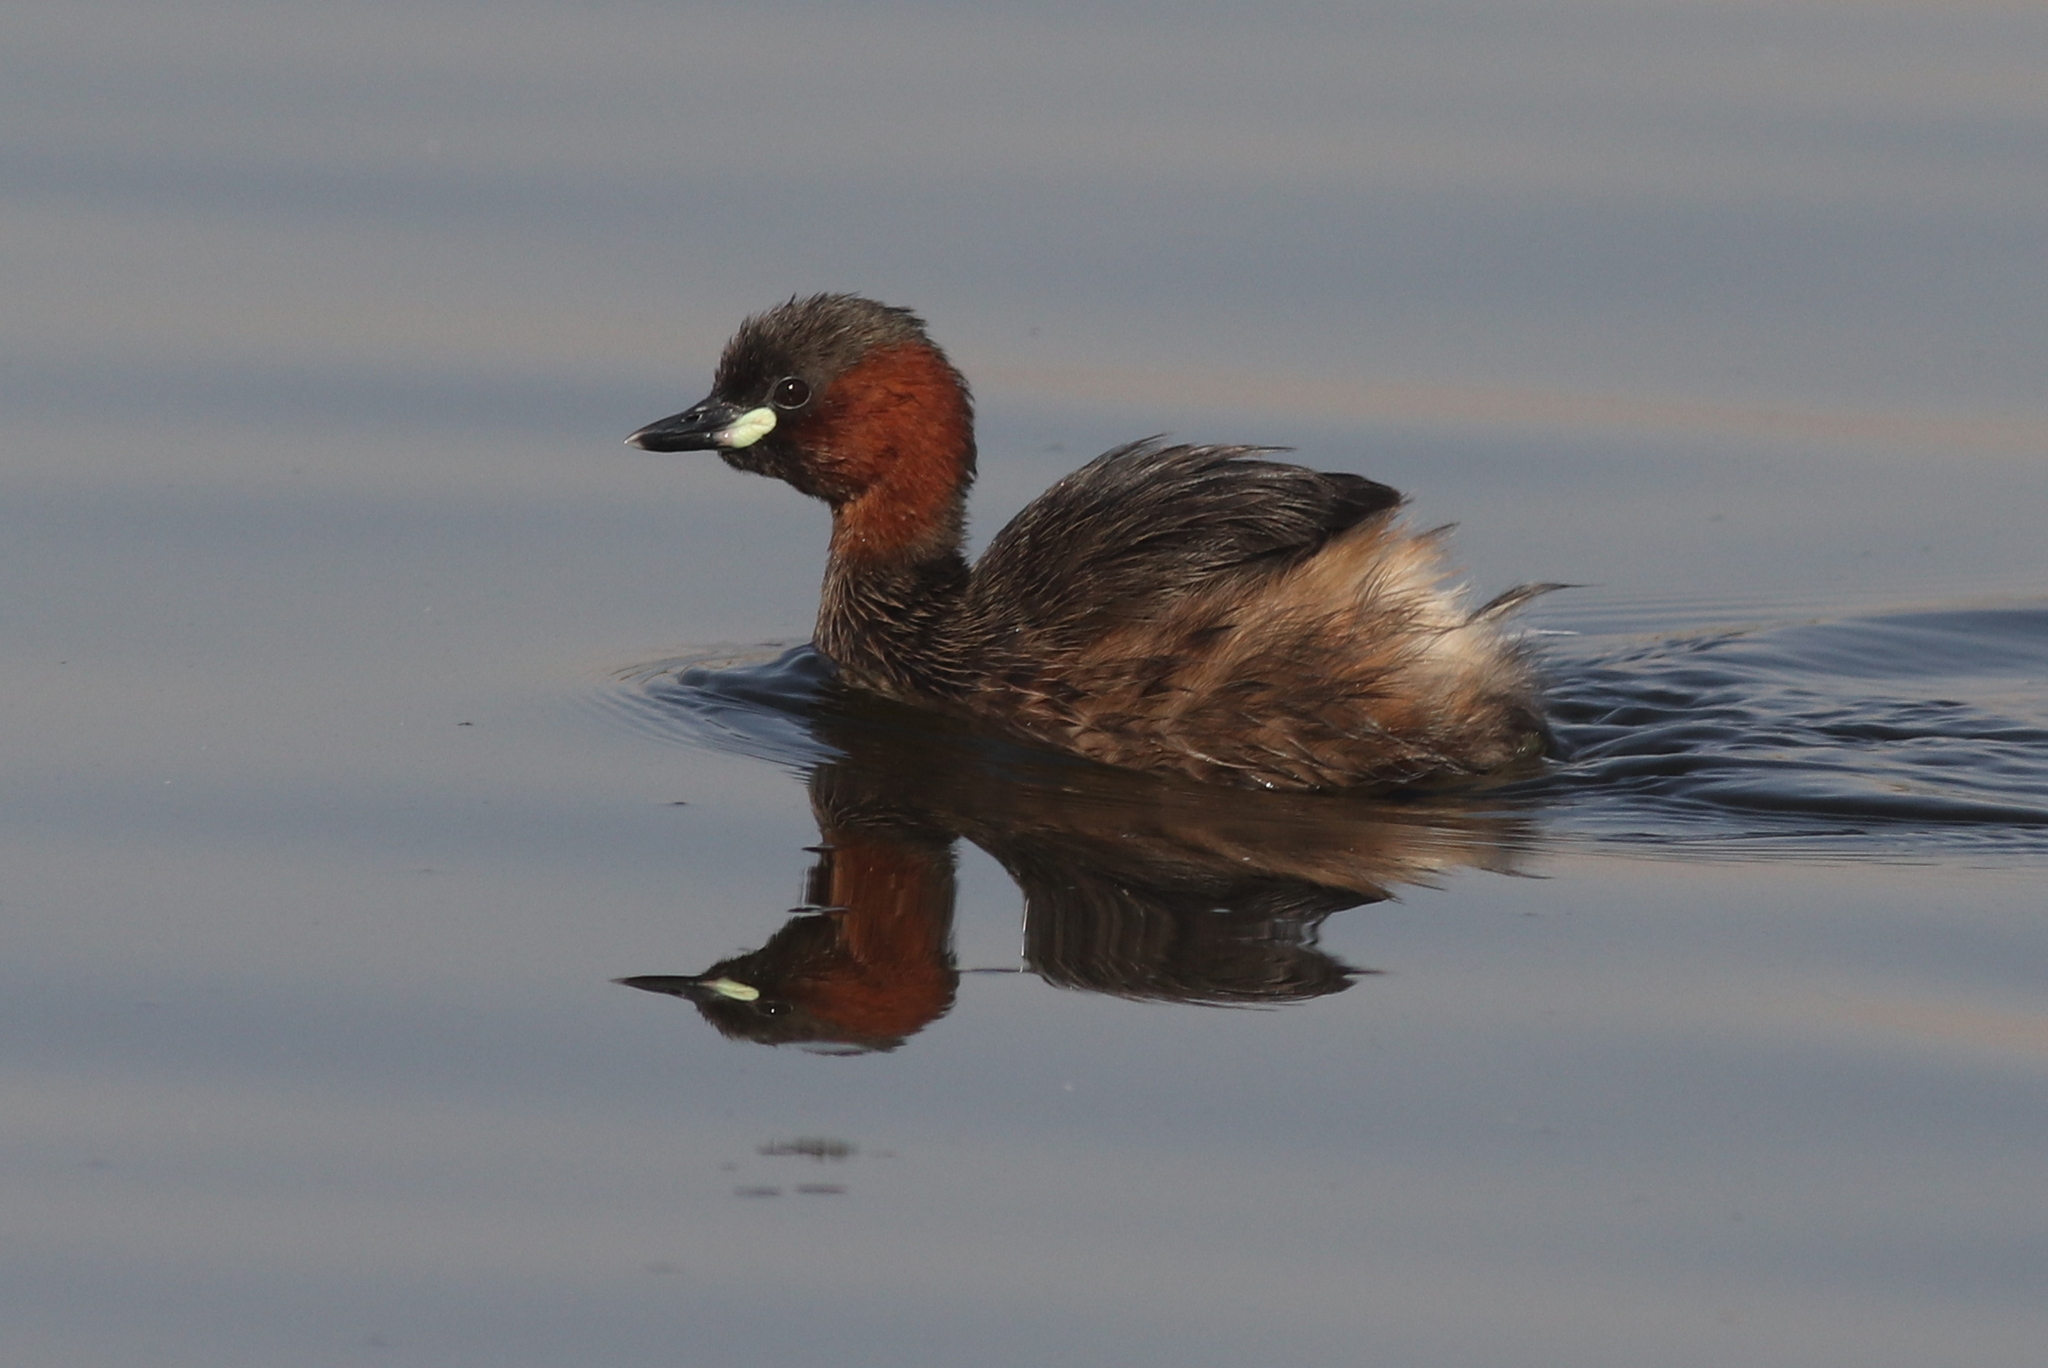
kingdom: Animalia
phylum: Chordata
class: Aves
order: Podicipediformes
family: Podicipedidae
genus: Tachybaptus
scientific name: Tachybaptus ruficollis
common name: Little grebe
